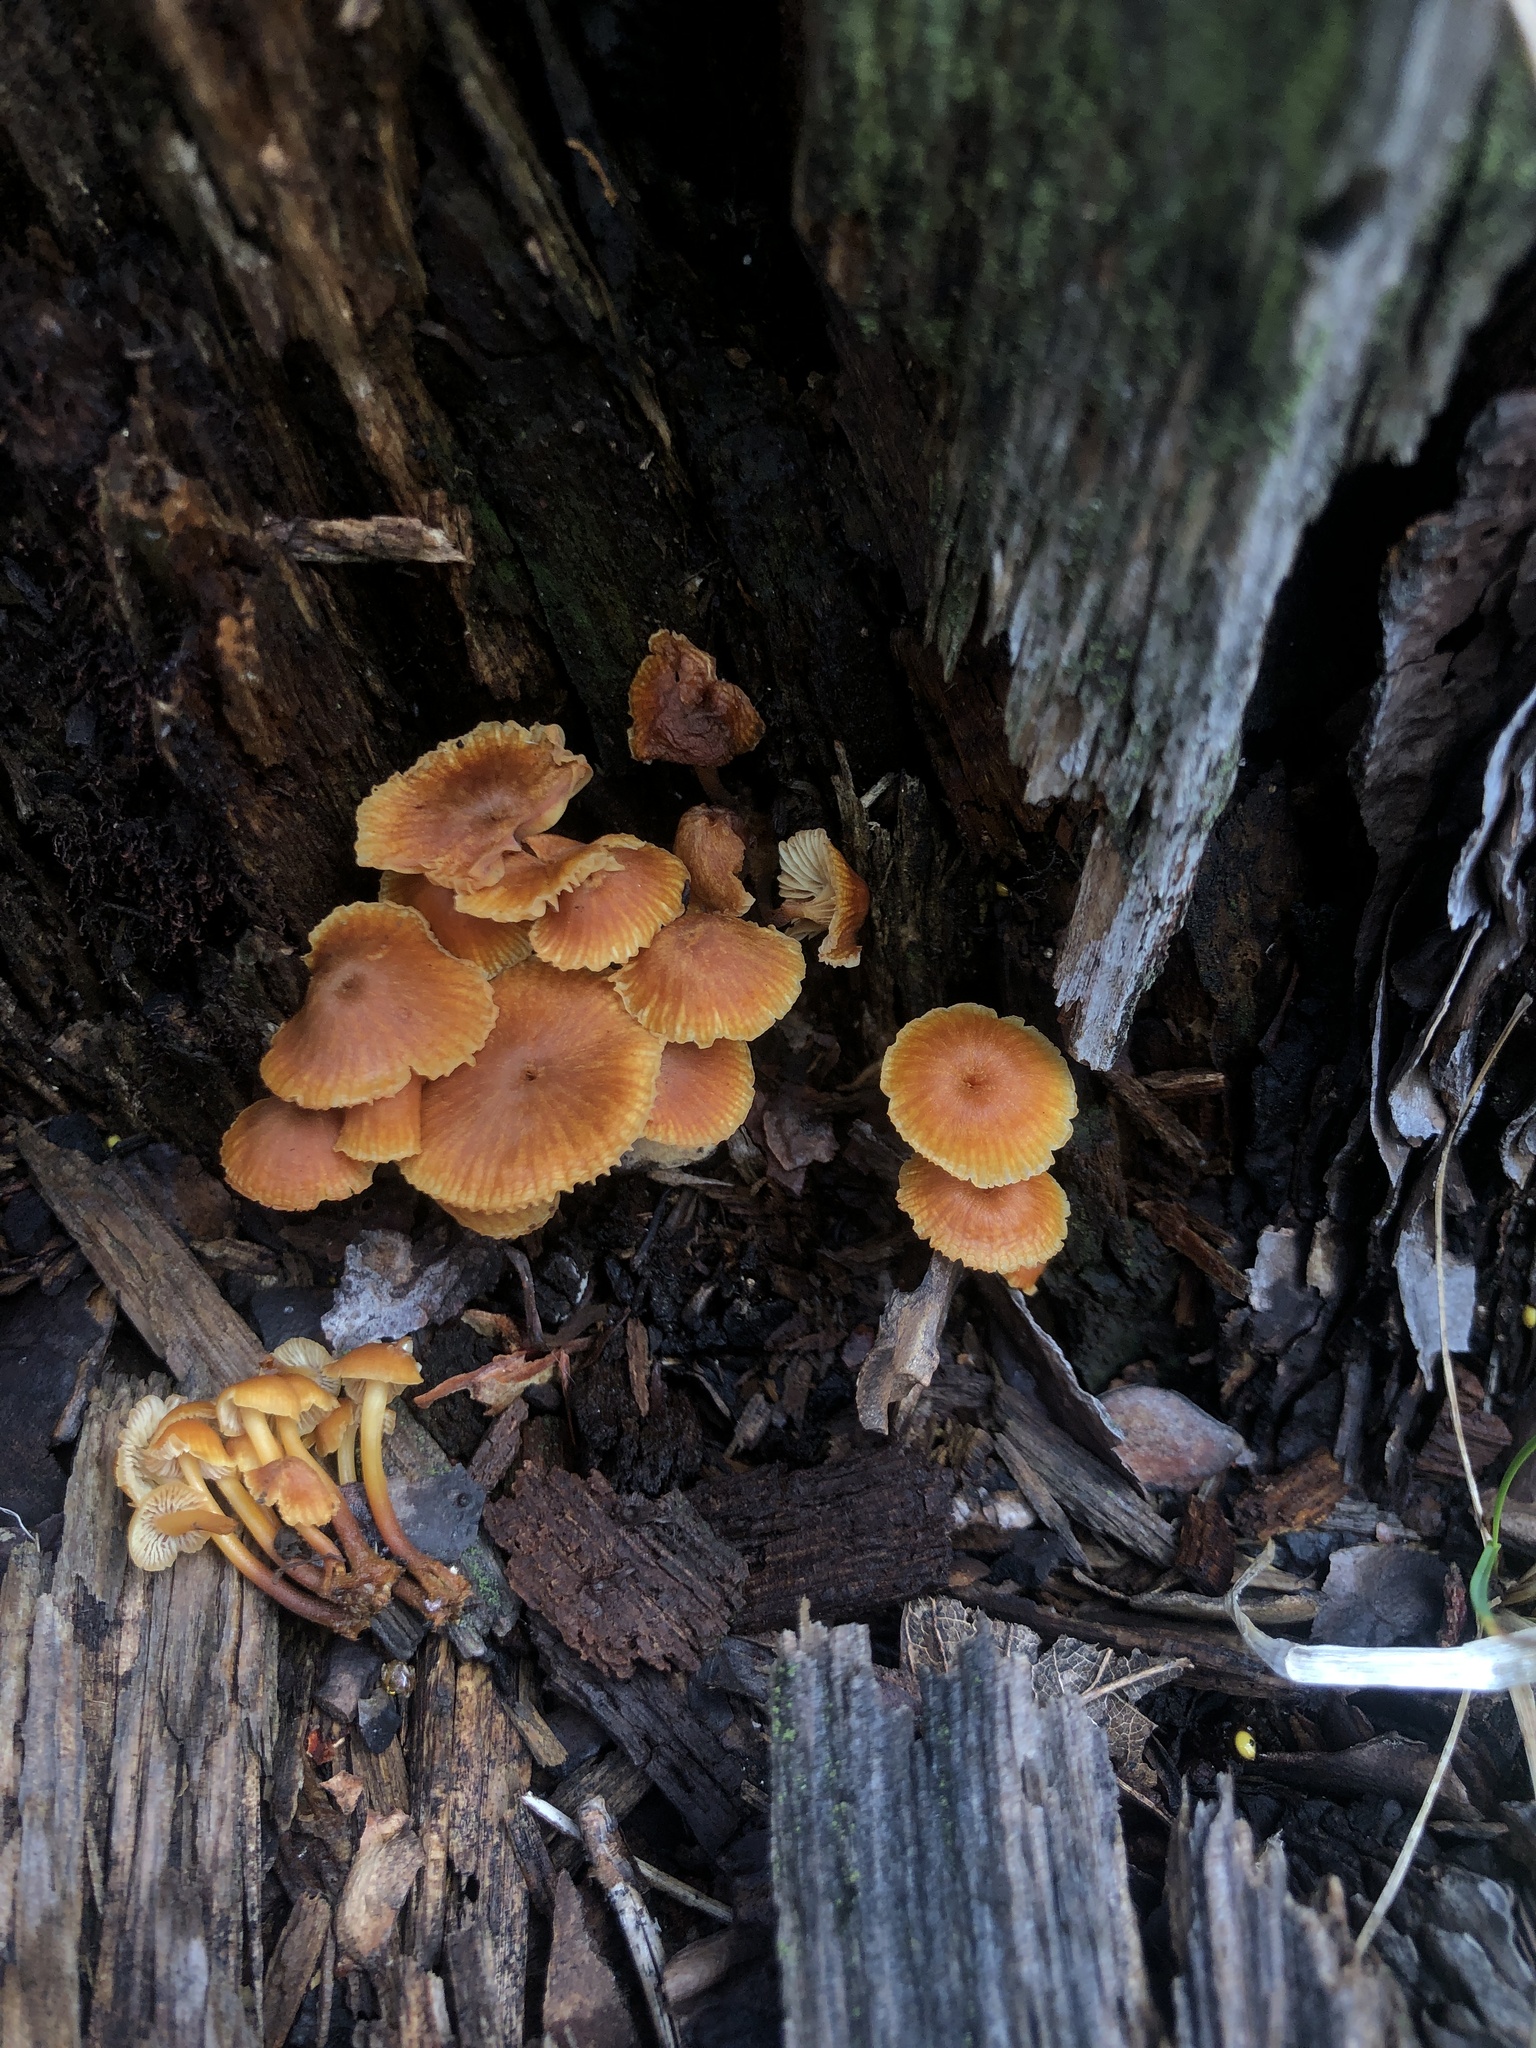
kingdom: Fungi
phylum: Basidiomycota
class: Agaricomycetes
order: Agaricales
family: Mycenaceae
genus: Xeromphalina
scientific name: Xeromphalina enigmatica
